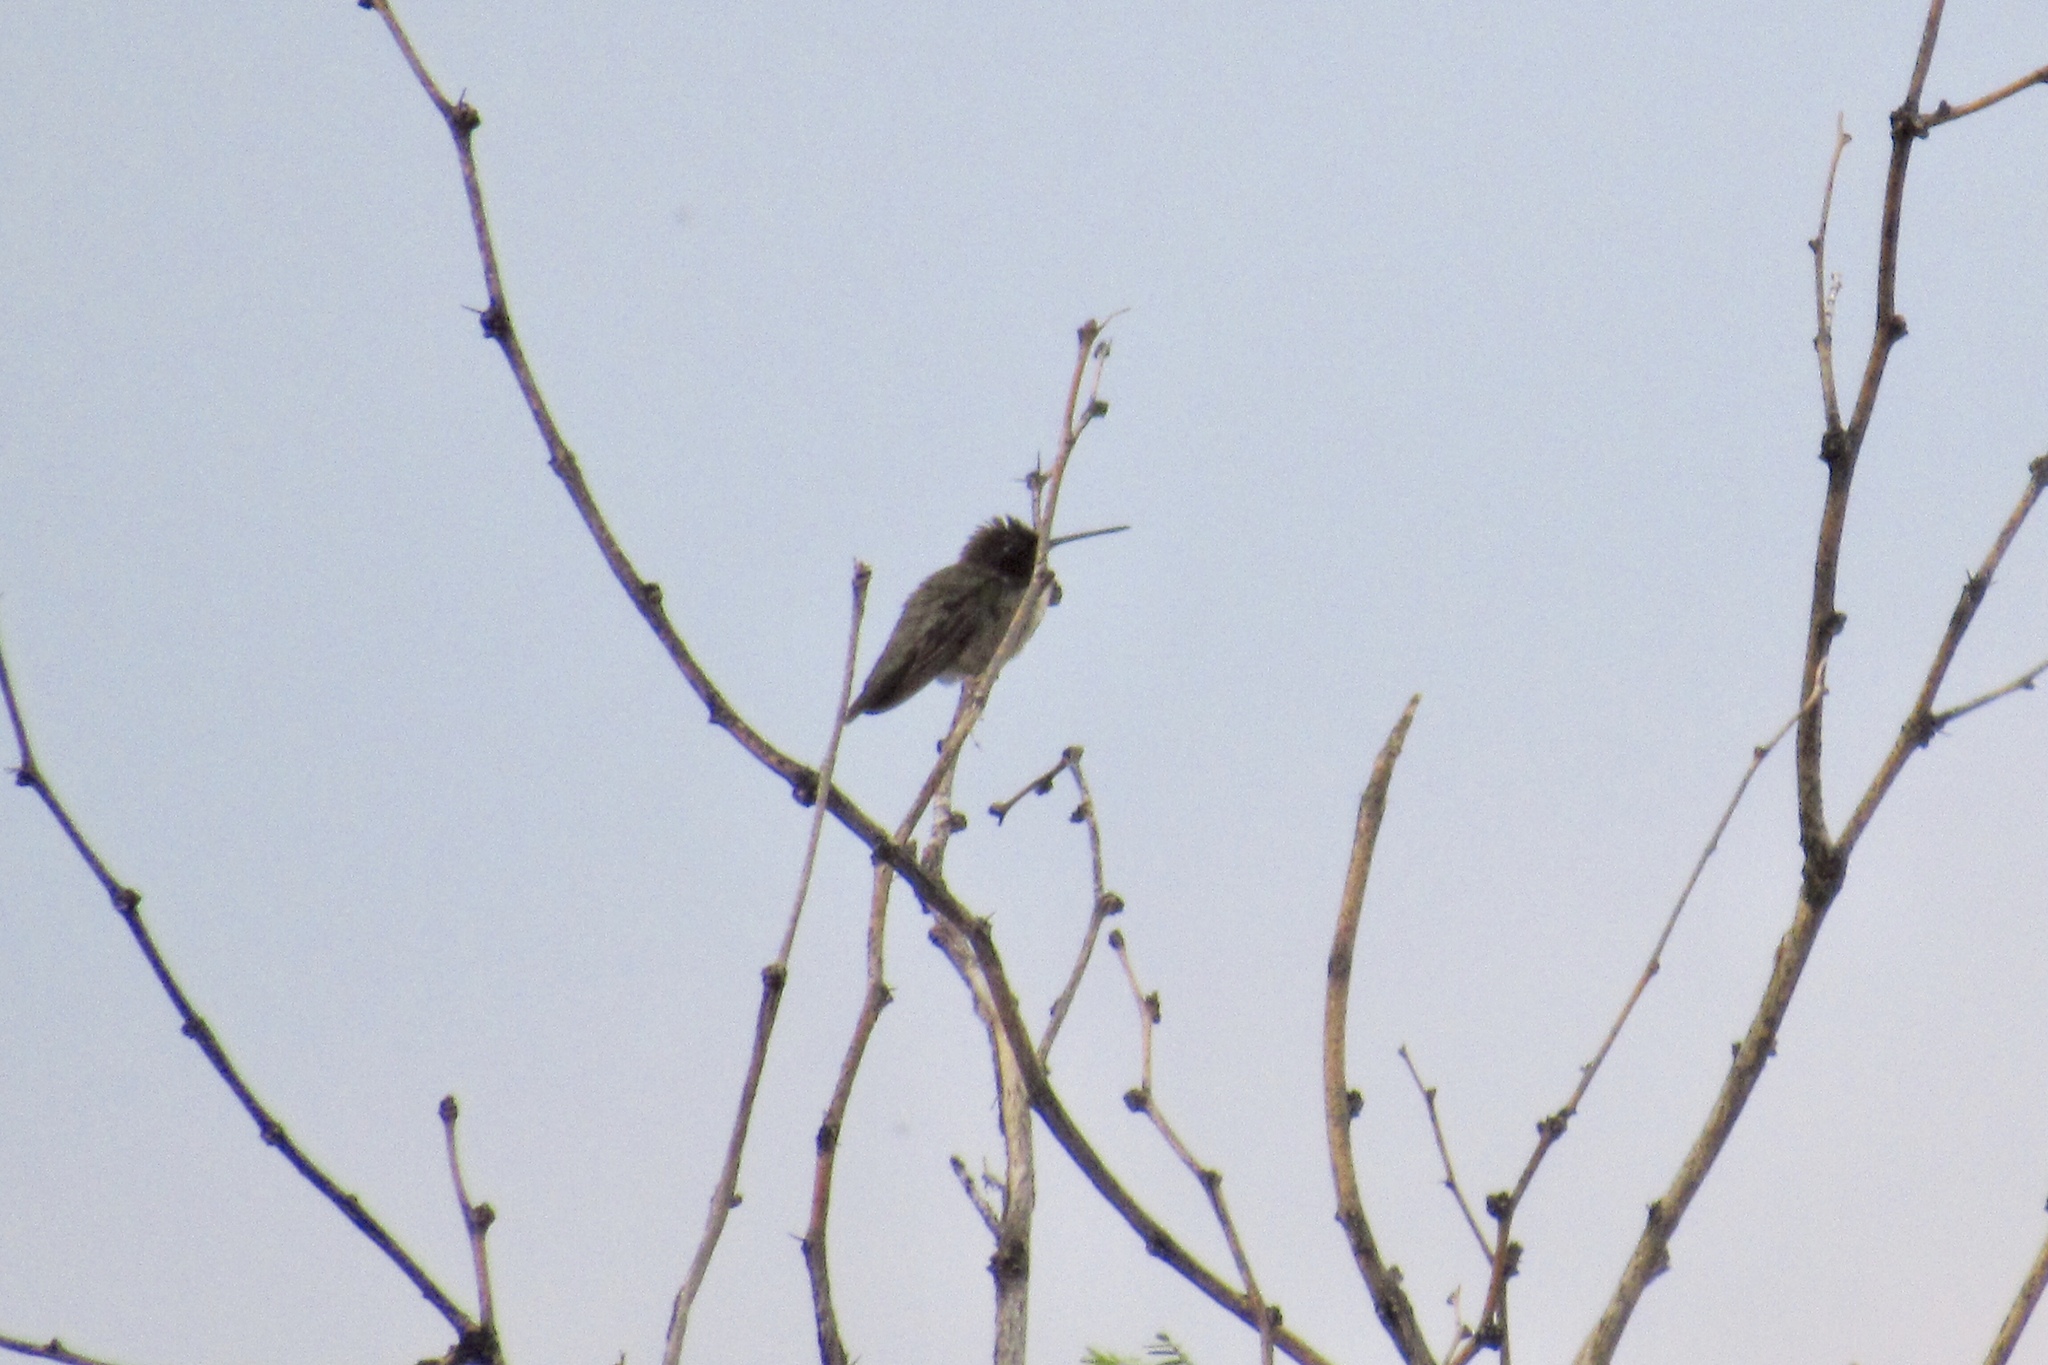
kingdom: Animalia
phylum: Chordata
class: Aves
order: Apodiformes
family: Trochilidae
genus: Archilochus
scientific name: Archilochus alexandri
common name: Black-chinned hummingbird
